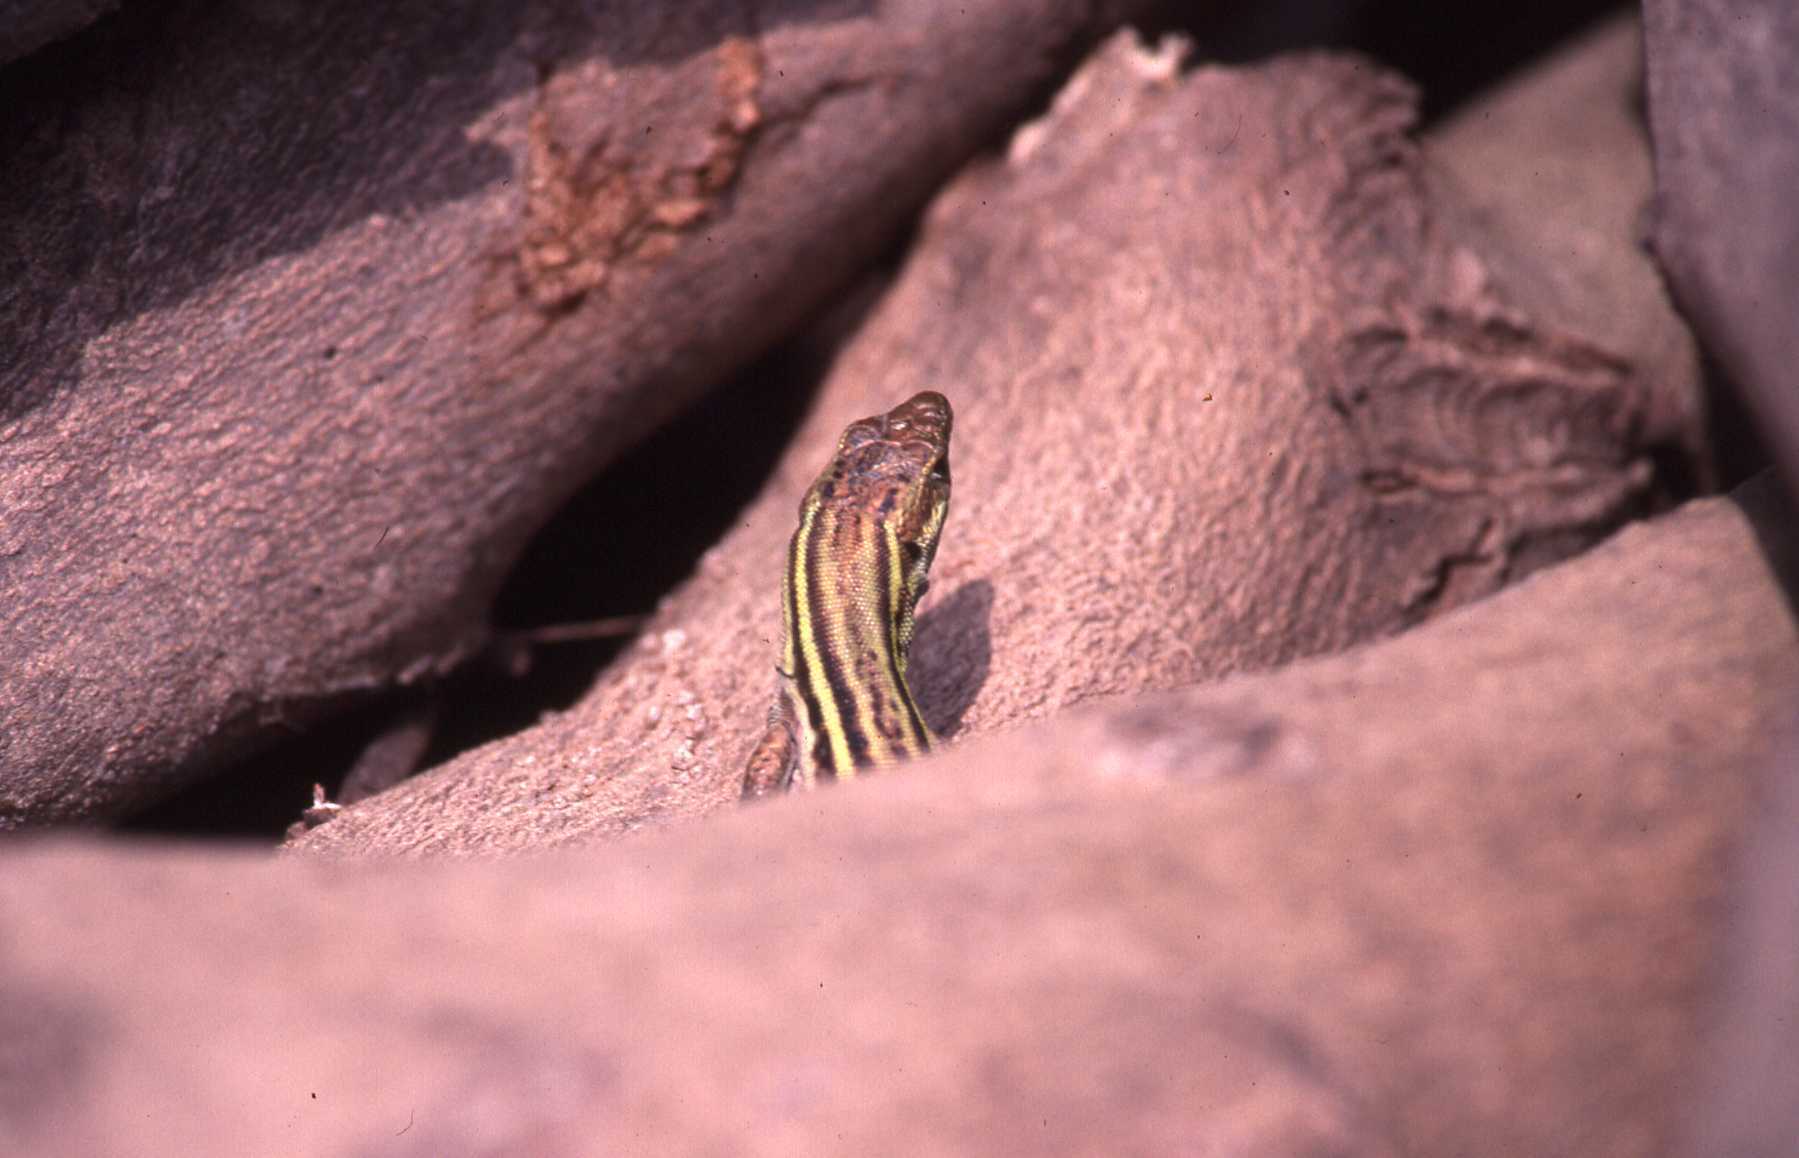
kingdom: Animalia
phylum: Chordata
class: Squamata
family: Lacertidae
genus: Podarcis
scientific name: Podarcis peloponnesiacus
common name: Peloponnese wall lizard
